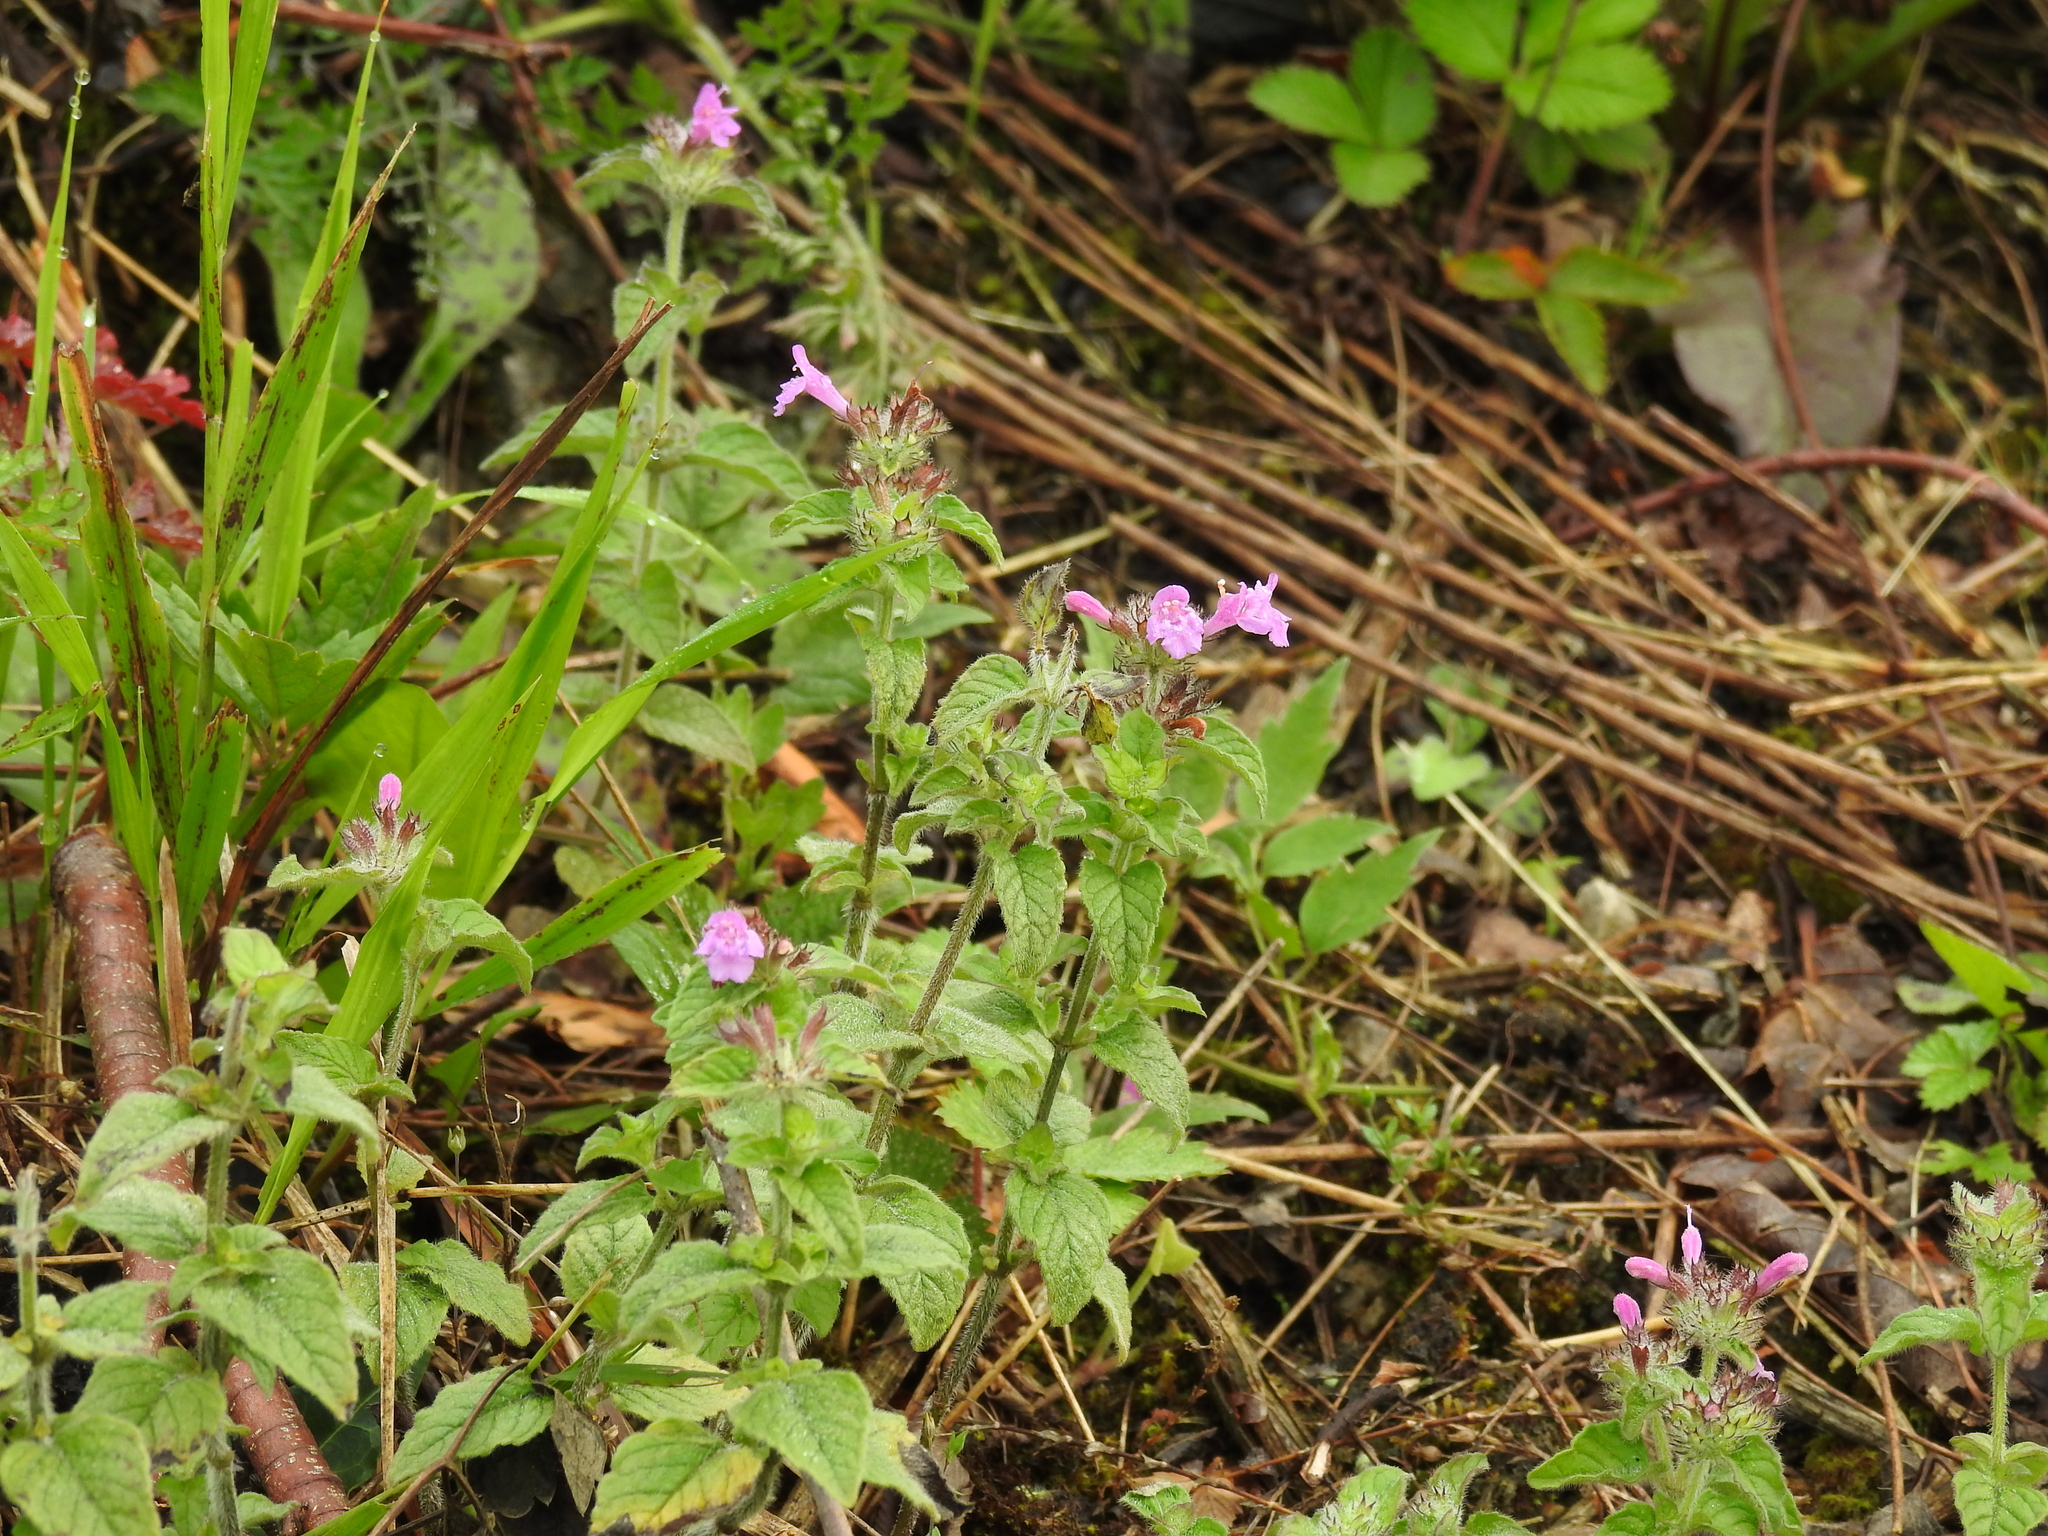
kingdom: Plantae
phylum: Tracheophyta
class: Magnoliopsida
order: Lamiales
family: Lamiaceae
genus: Clinopodium
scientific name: Clinopodium vulgare
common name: Wild basil
